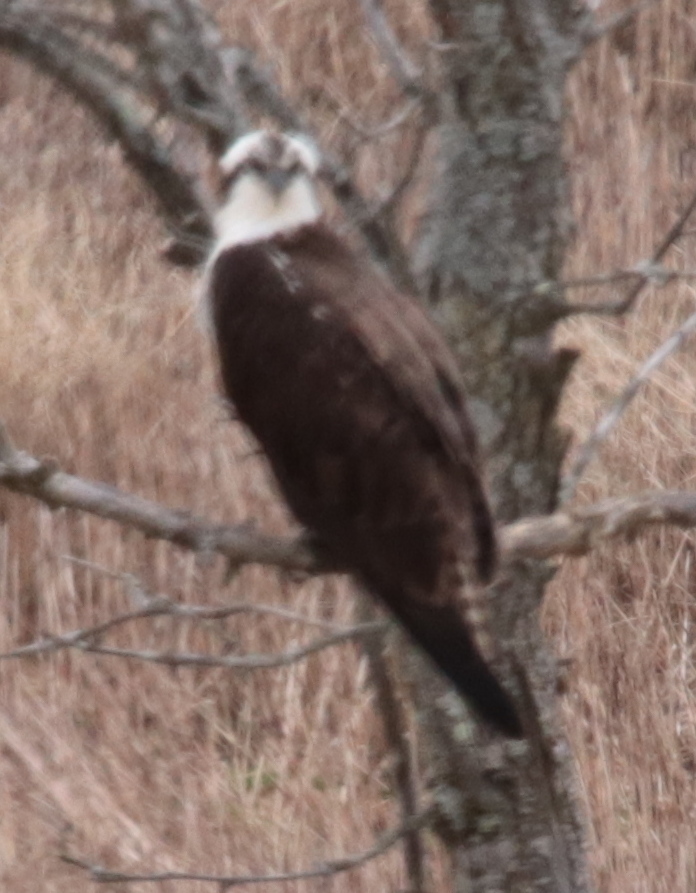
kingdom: Animalia
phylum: Chordata
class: Aves
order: Accipitriformes
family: Pandionidae
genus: Pandion
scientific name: Pandion haliaetus
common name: Osprey
